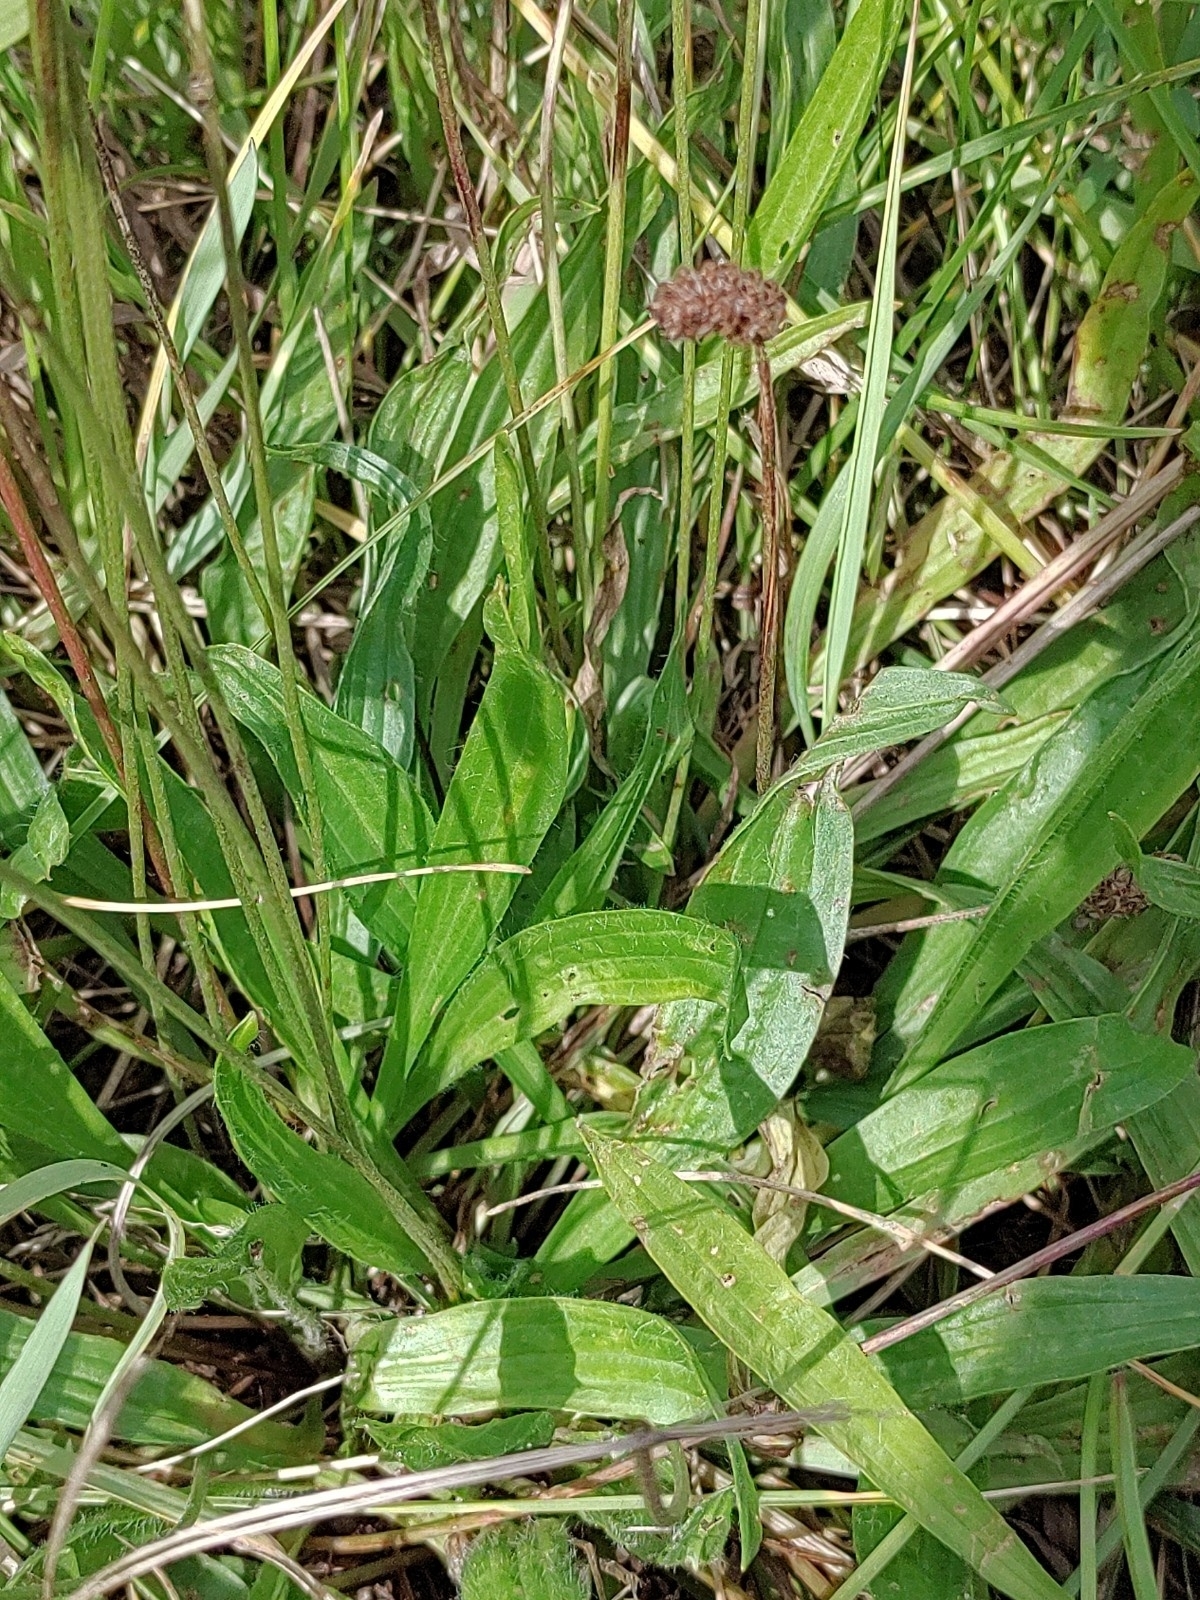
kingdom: Plantae
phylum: Tracheophyta
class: Magnoliopsida
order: Lamiales
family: Plantaginaceae
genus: Plantago
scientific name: Plantago lanceolata
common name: Ribwort plantain
